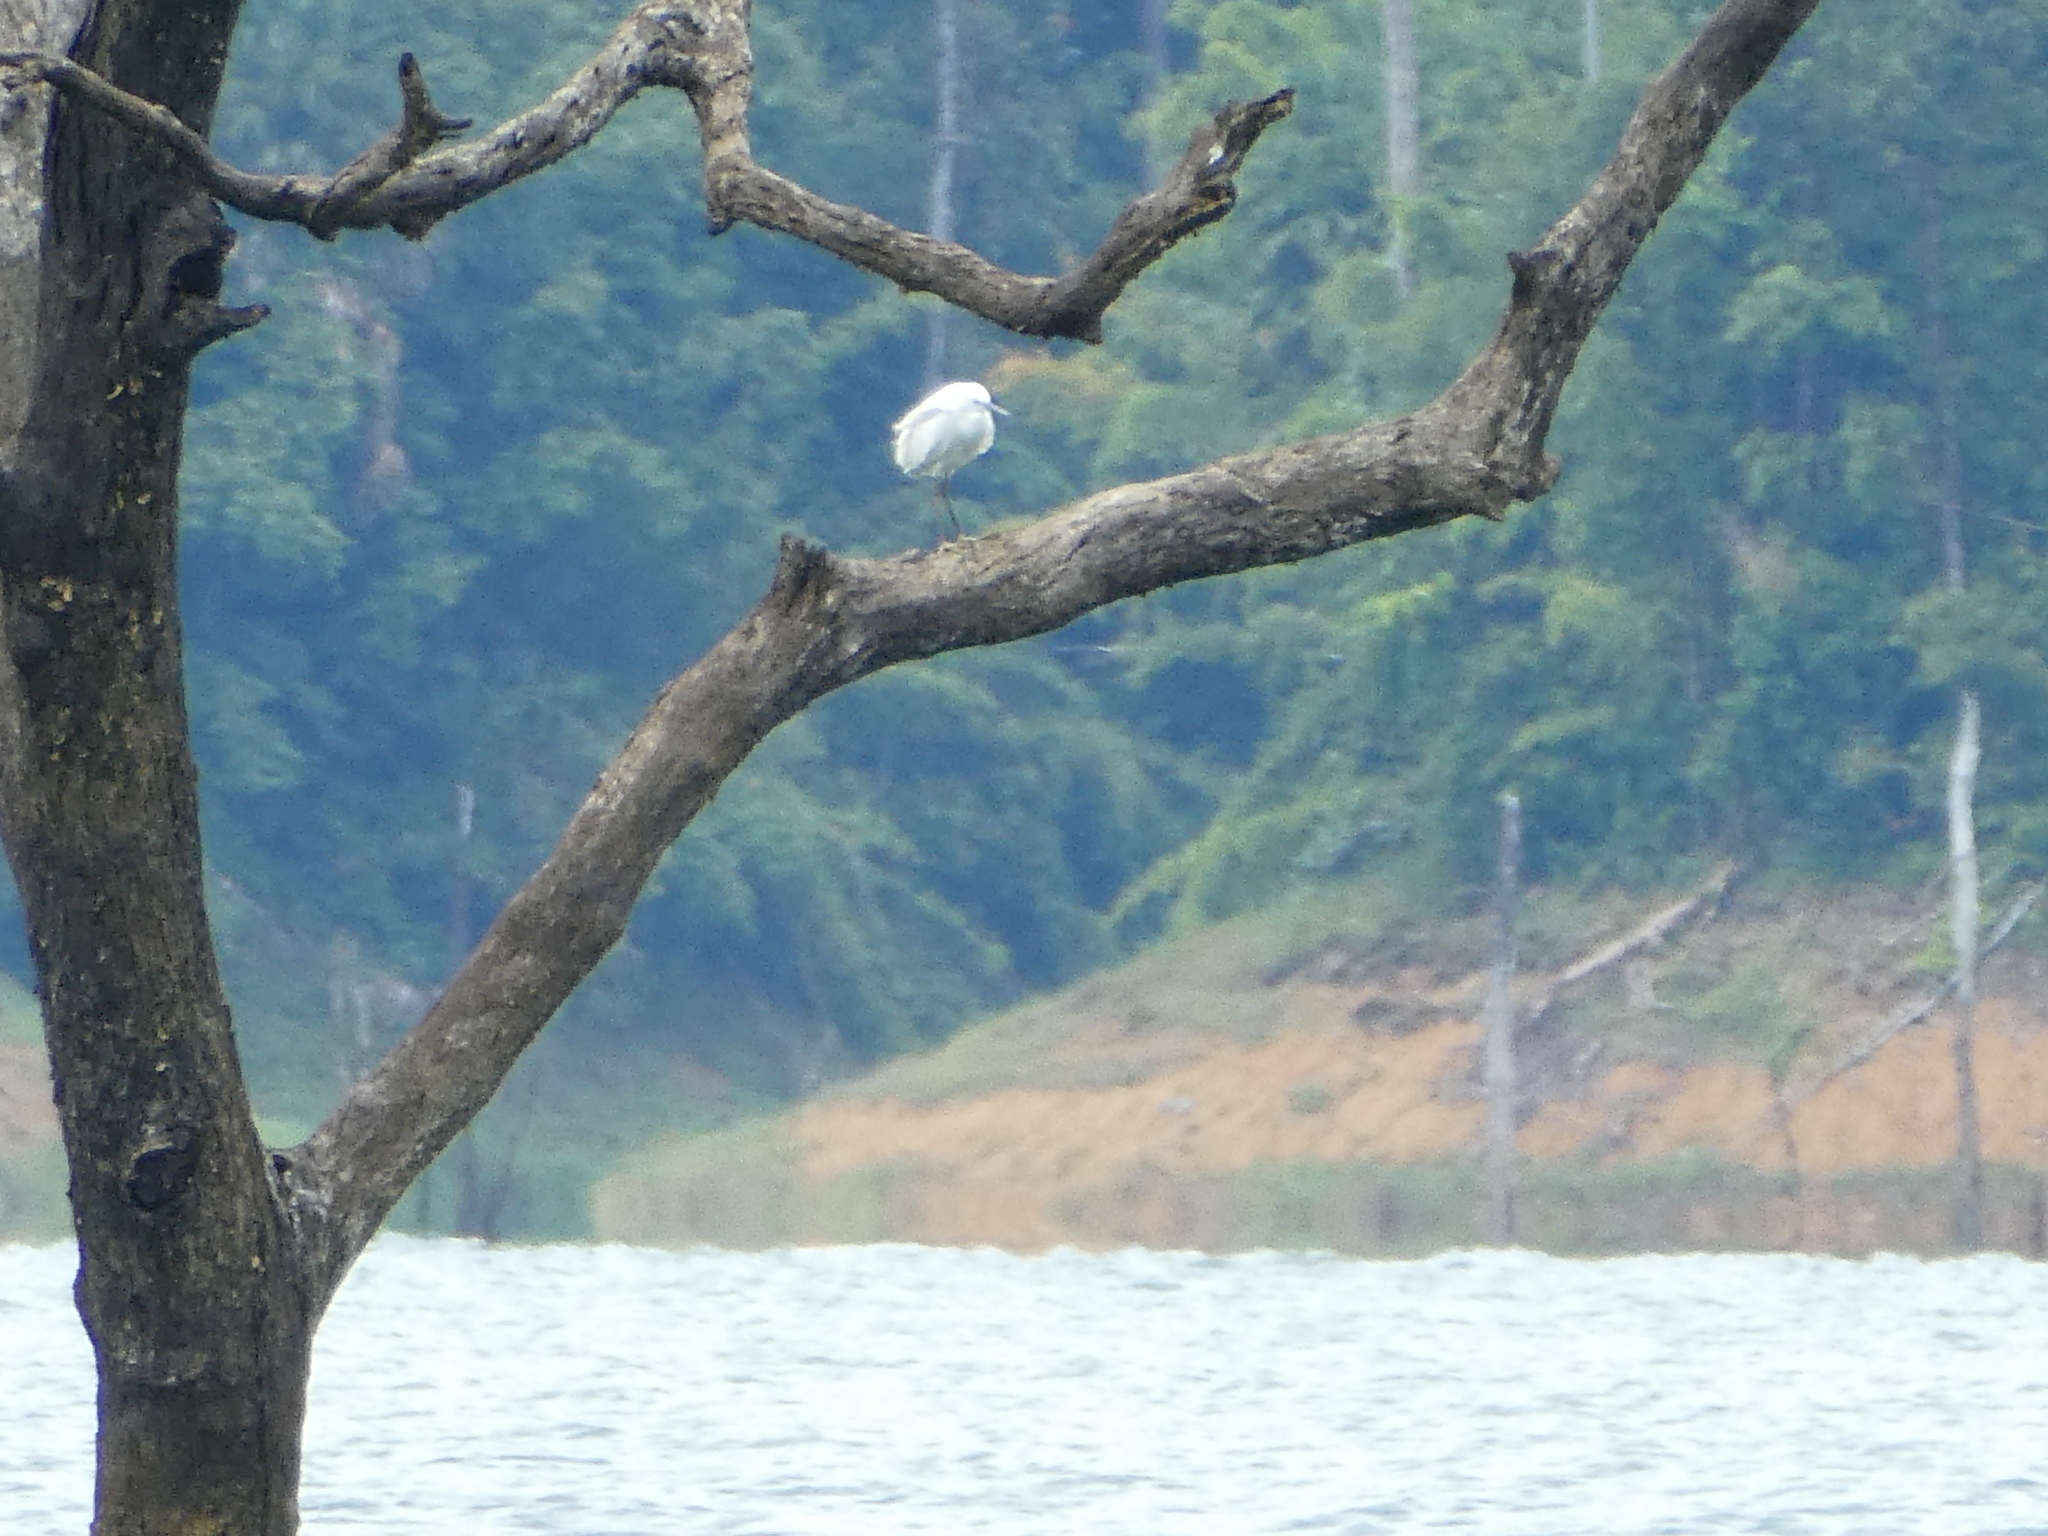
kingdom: Animalia
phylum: Chordata
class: Aves
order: Pelecaniformes
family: Ardeidae
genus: Egretta
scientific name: Egretta garzetta
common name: Little egret
